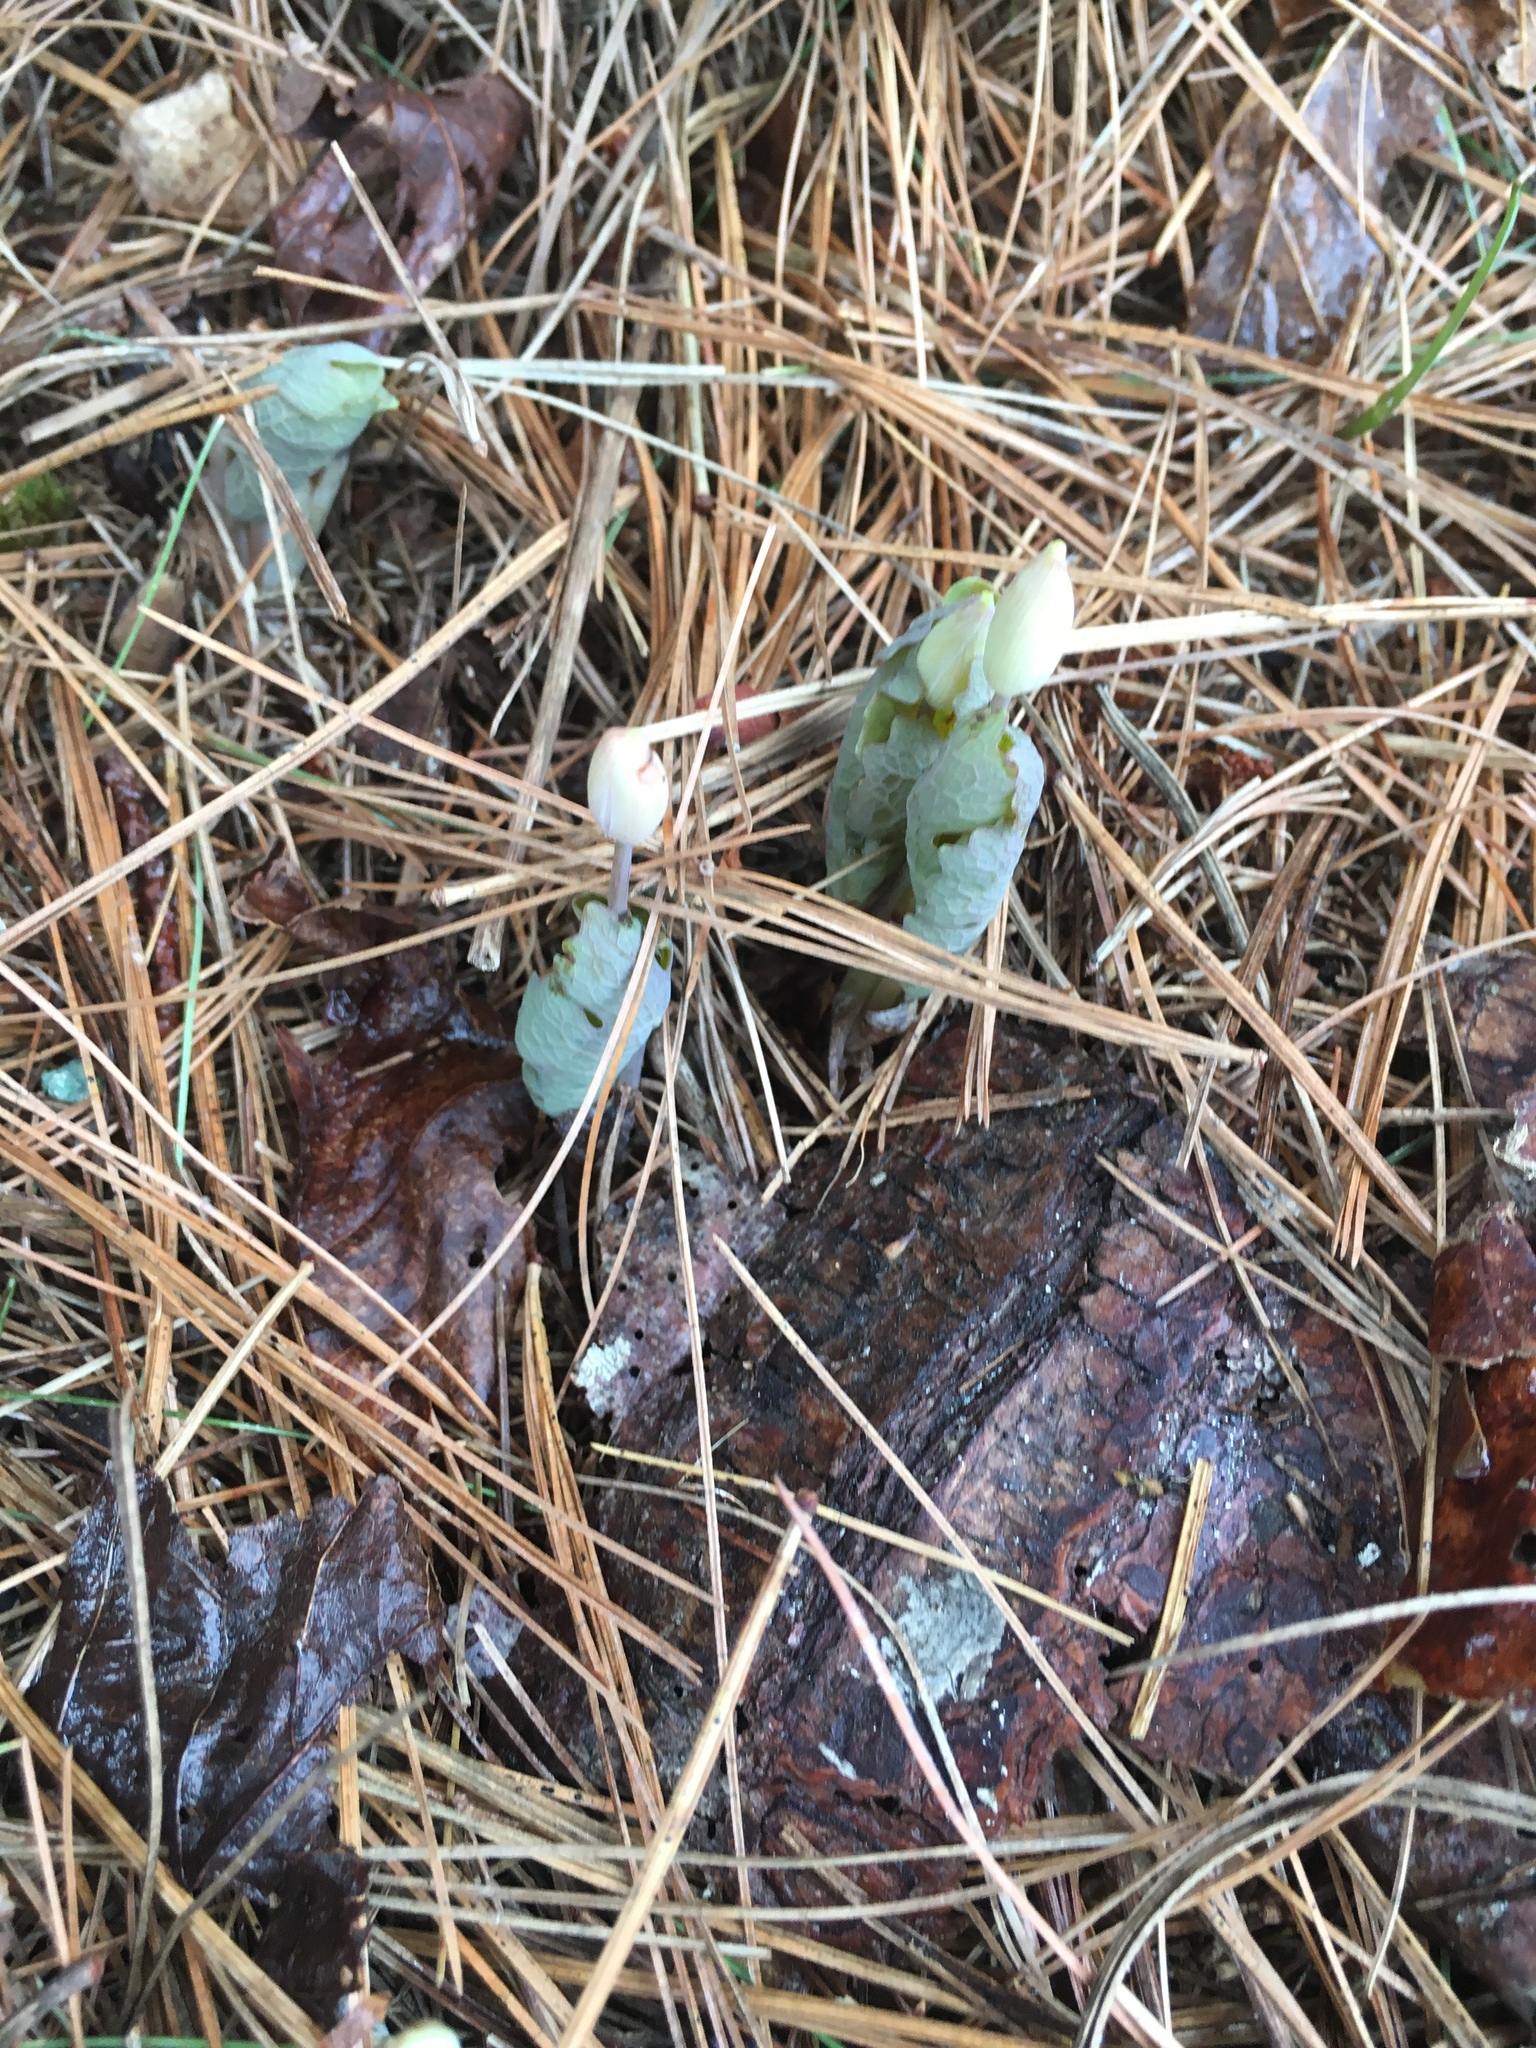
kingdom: Plantae
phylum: Tracheophyta
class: Magnoliopsida
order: Ranunculales
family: Papaveraceae
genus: Sanguinaria
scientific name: Sanguinaria canadensis
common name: Bloodroot
